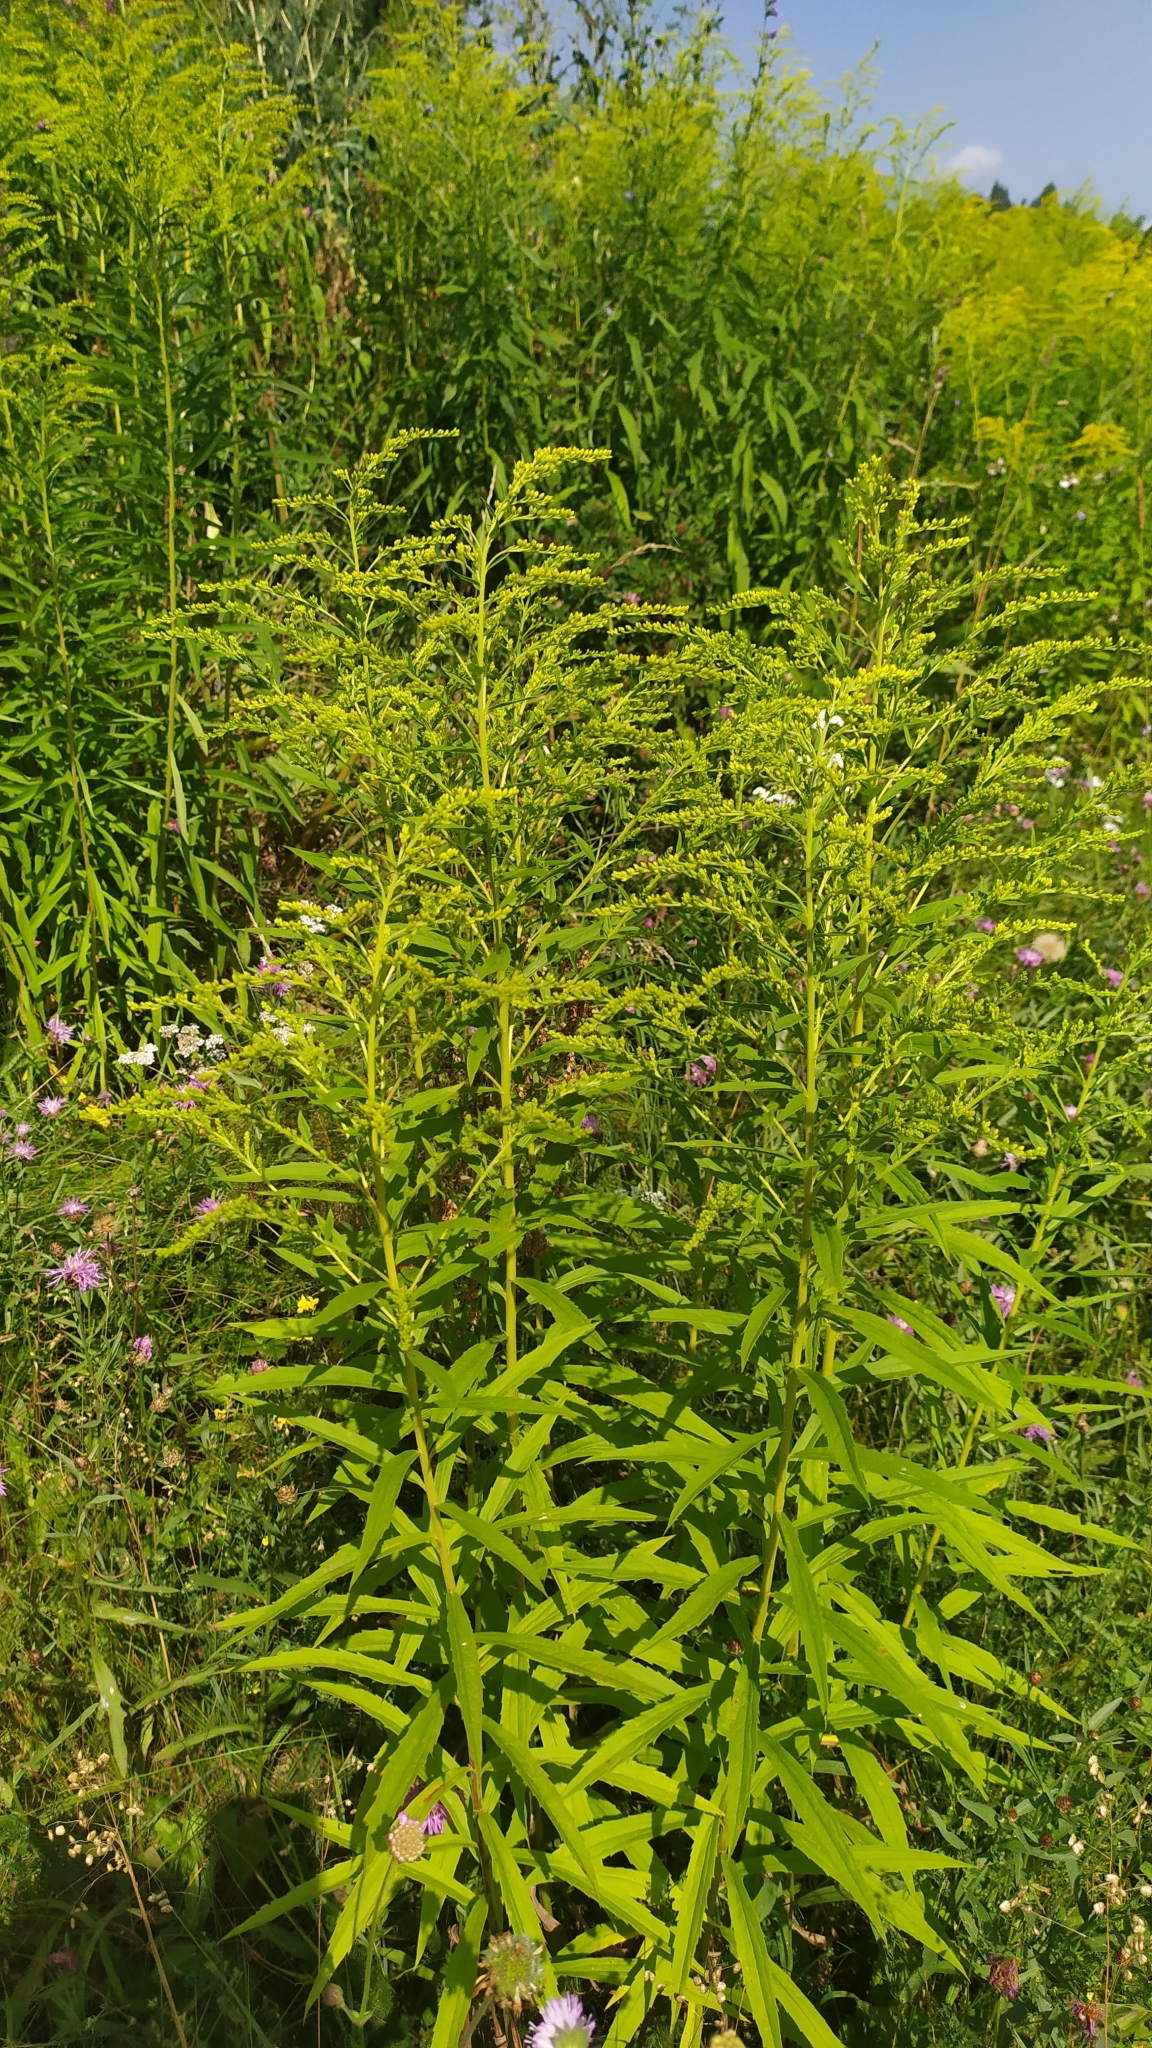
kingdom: Plantae
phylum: Tracheophyta
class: Magnoliopsida
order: Asterales
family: Asteraceae
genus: Solidago
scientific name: Solidago canadensis
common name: Canada goldenrod
